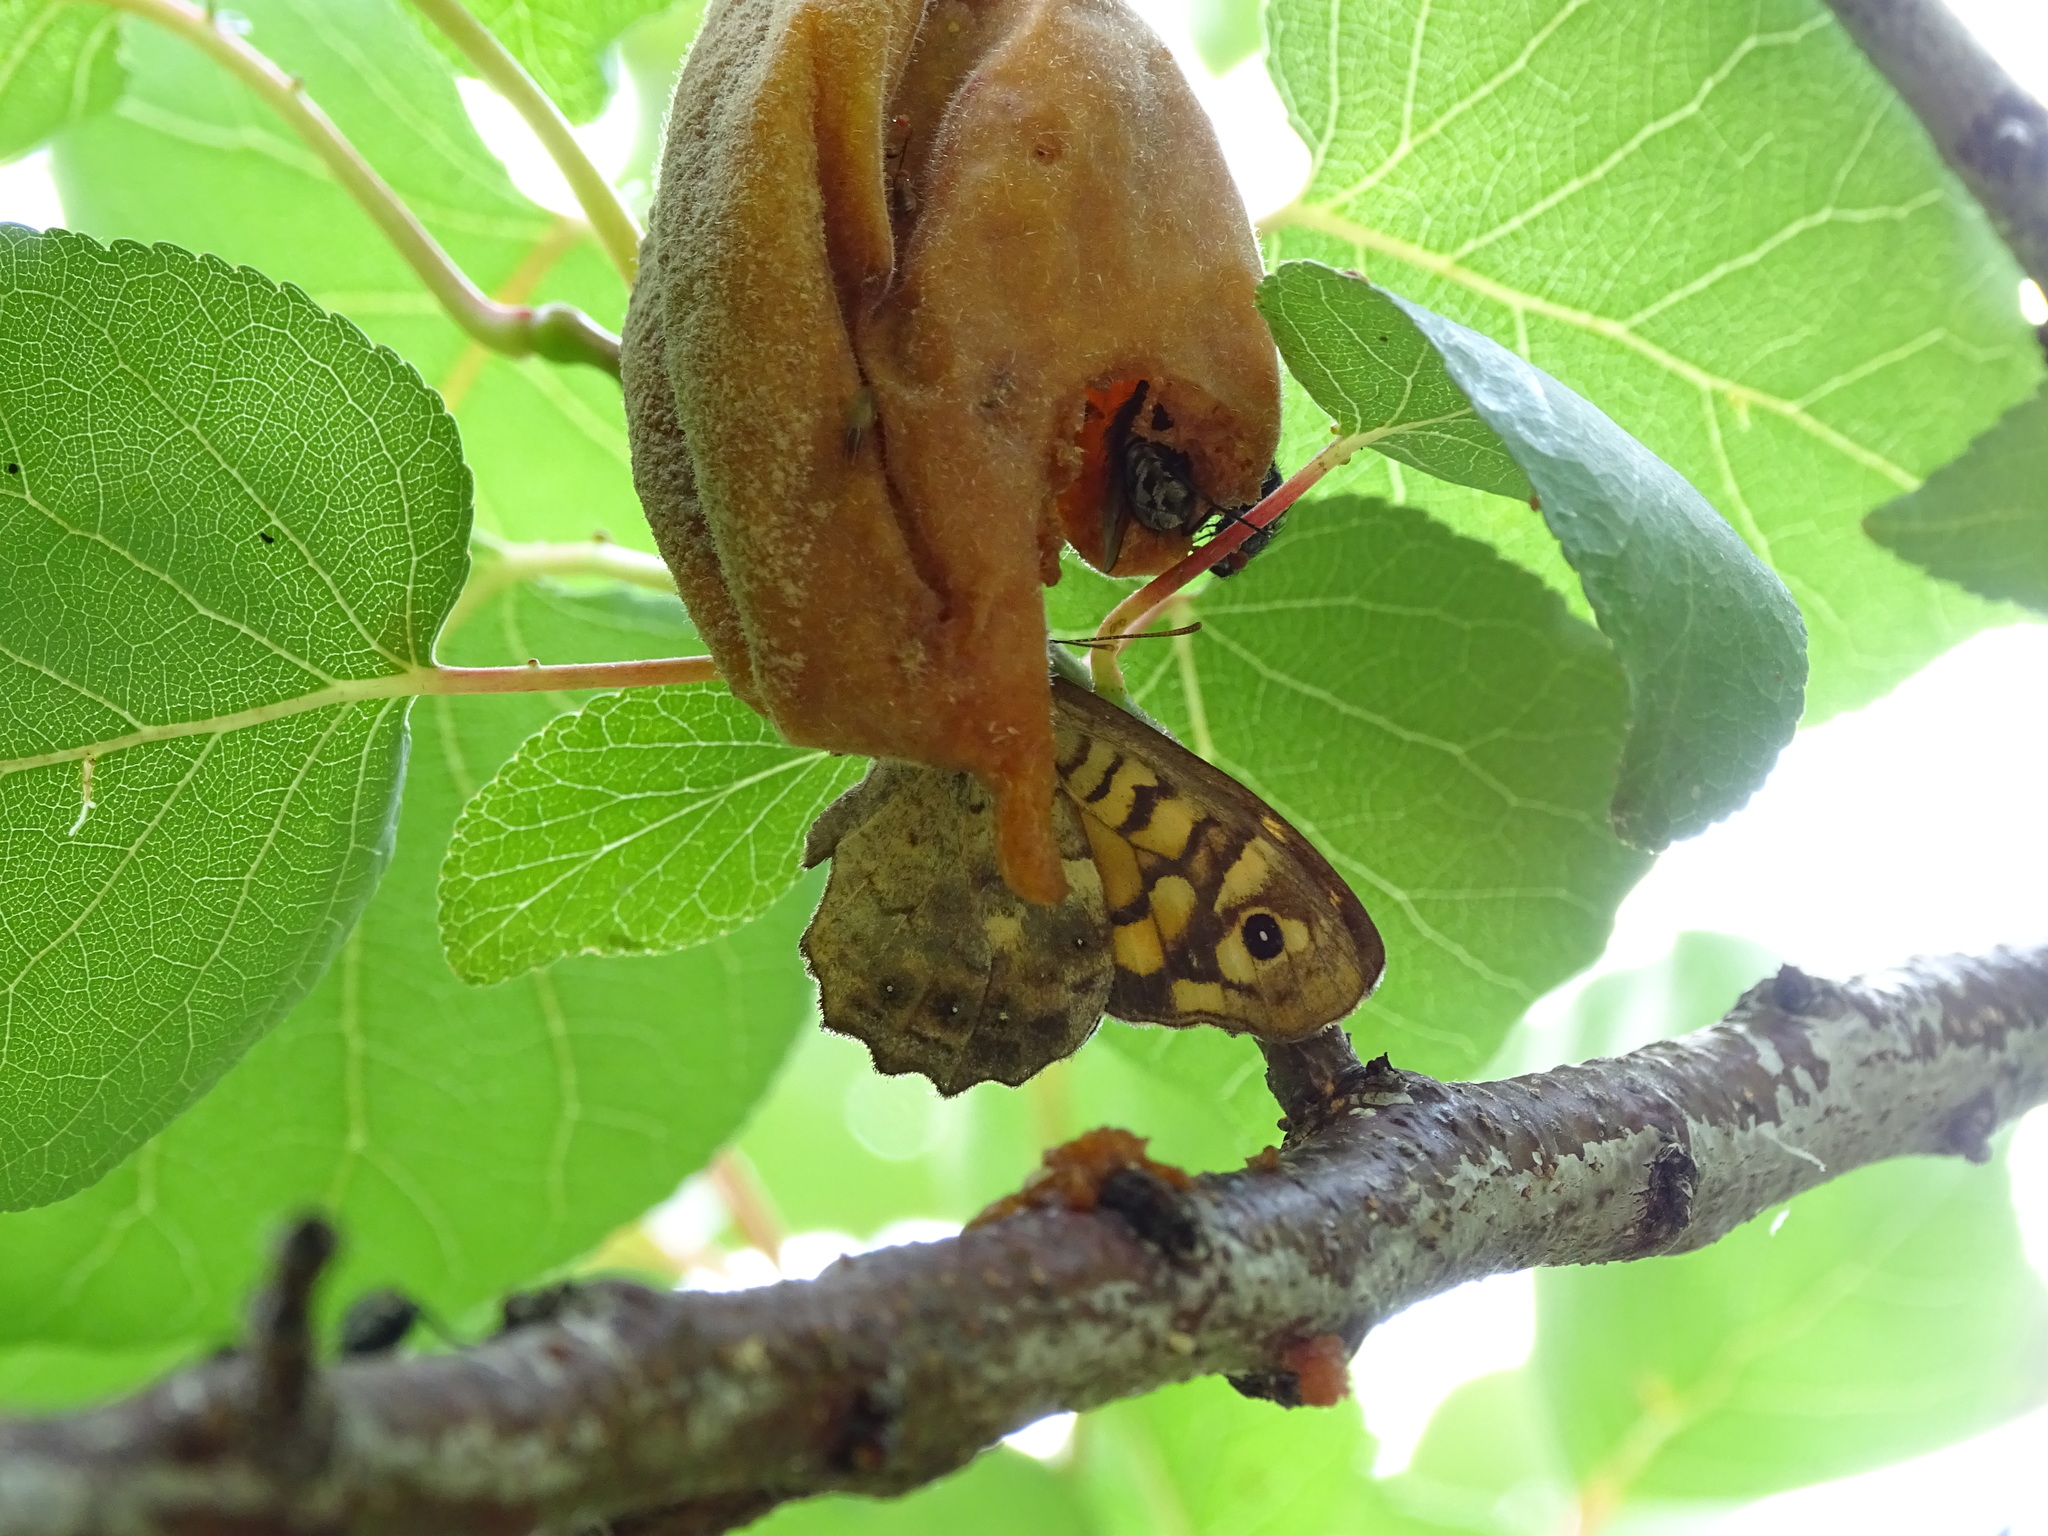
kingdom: Animalia
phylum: Arthropoda
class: Insecta
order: Lepidoptera
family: Nymphalidae
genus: Pararge
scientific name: Pararge aegeria
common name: Speckled wood
